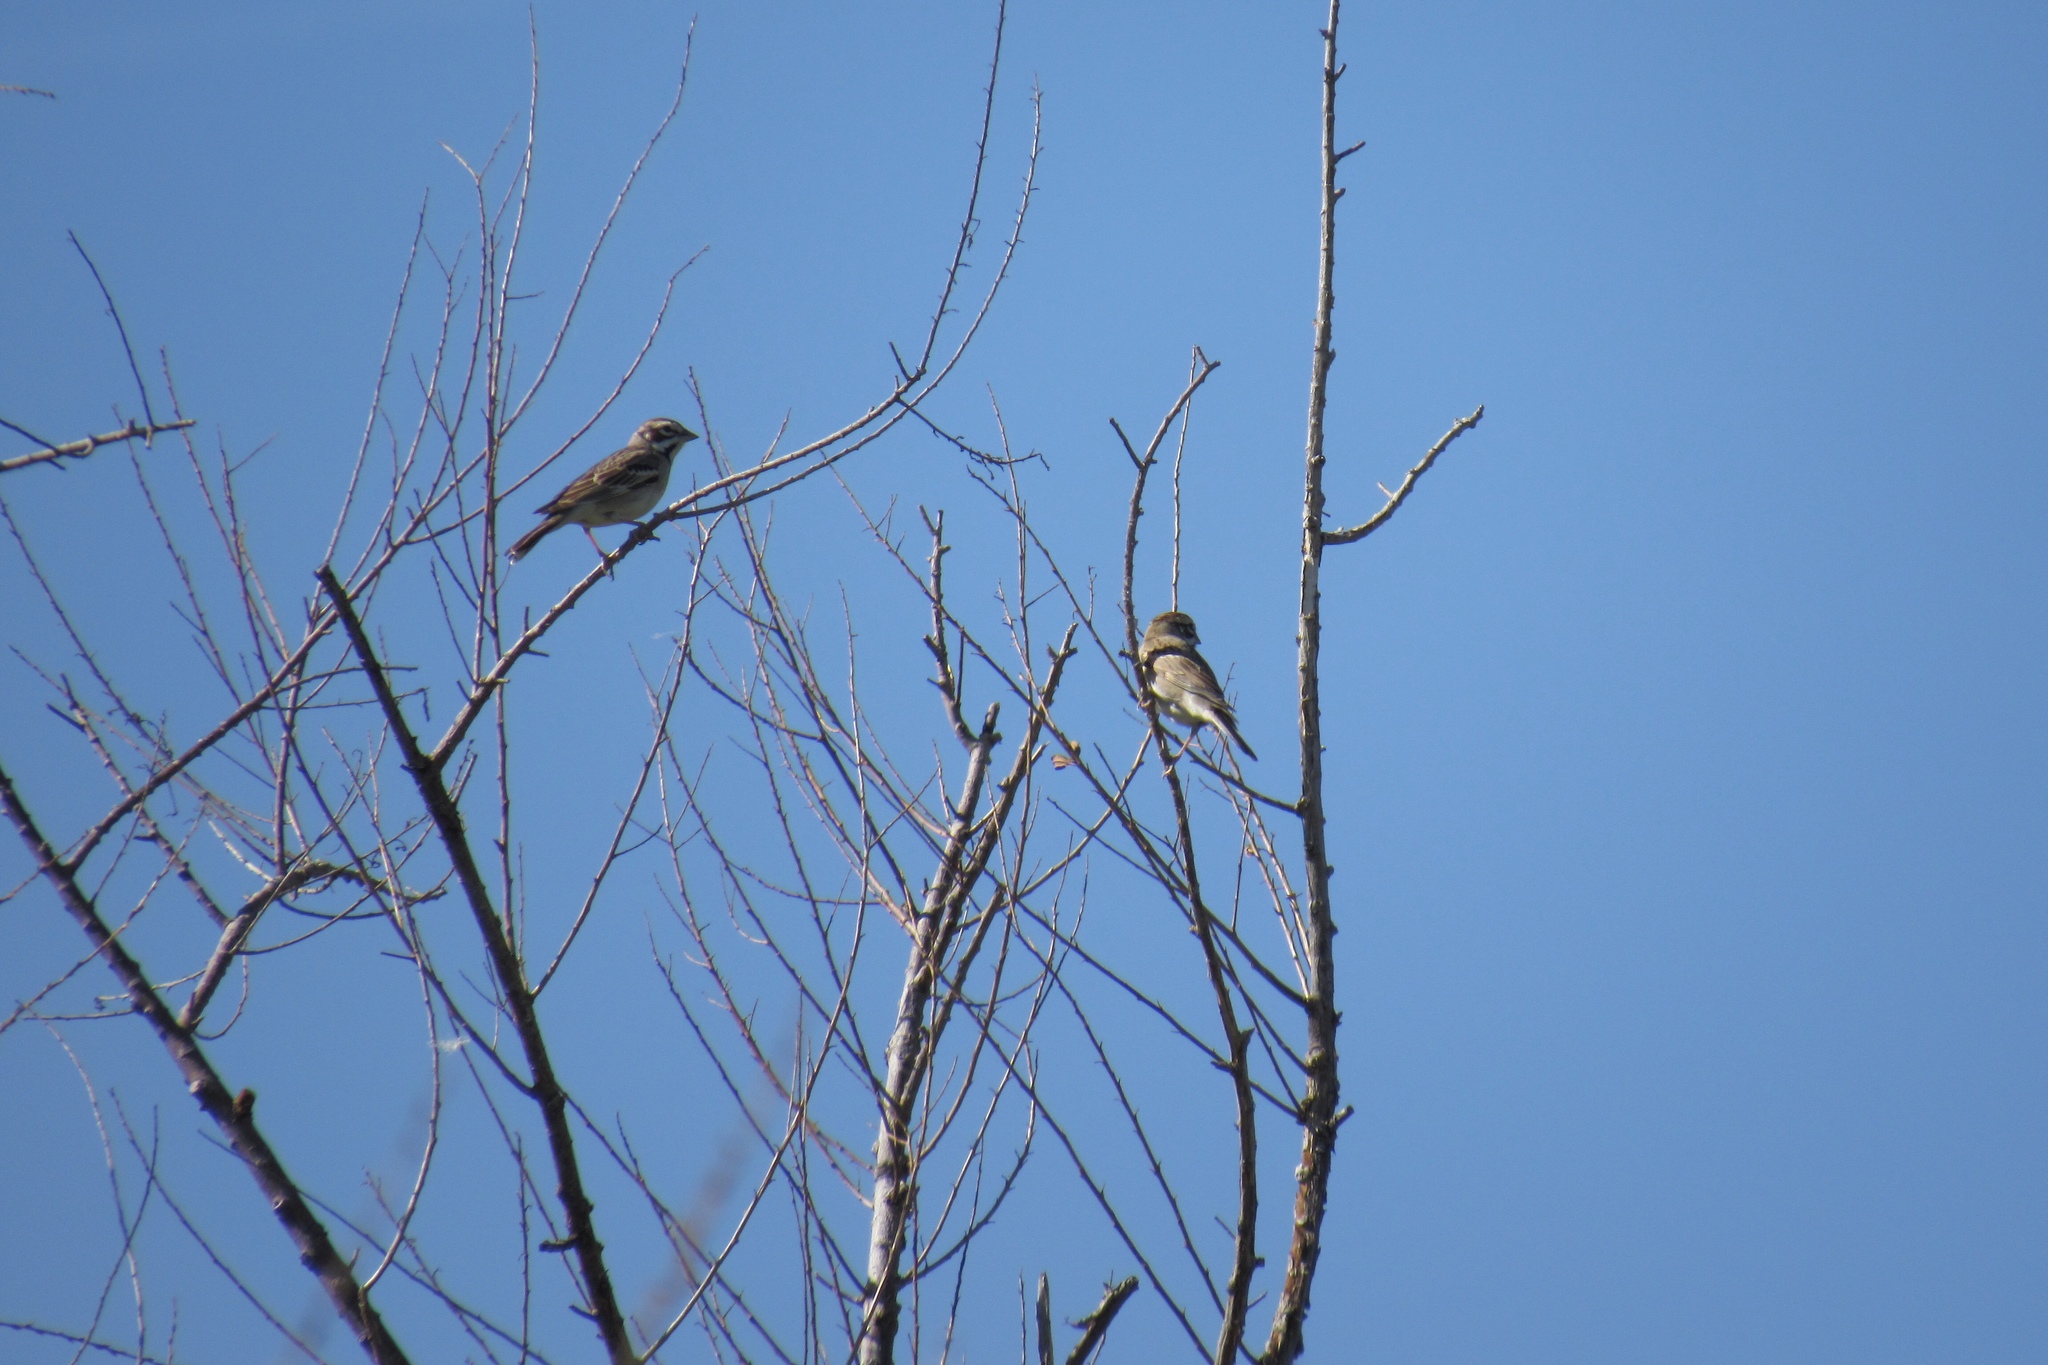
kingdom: Animalia
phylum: Chordata
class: Aves
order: Passeriformes
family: Passerellidae
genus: Chondestes
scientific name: Chondestes grammacus
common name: Lark sparrow
